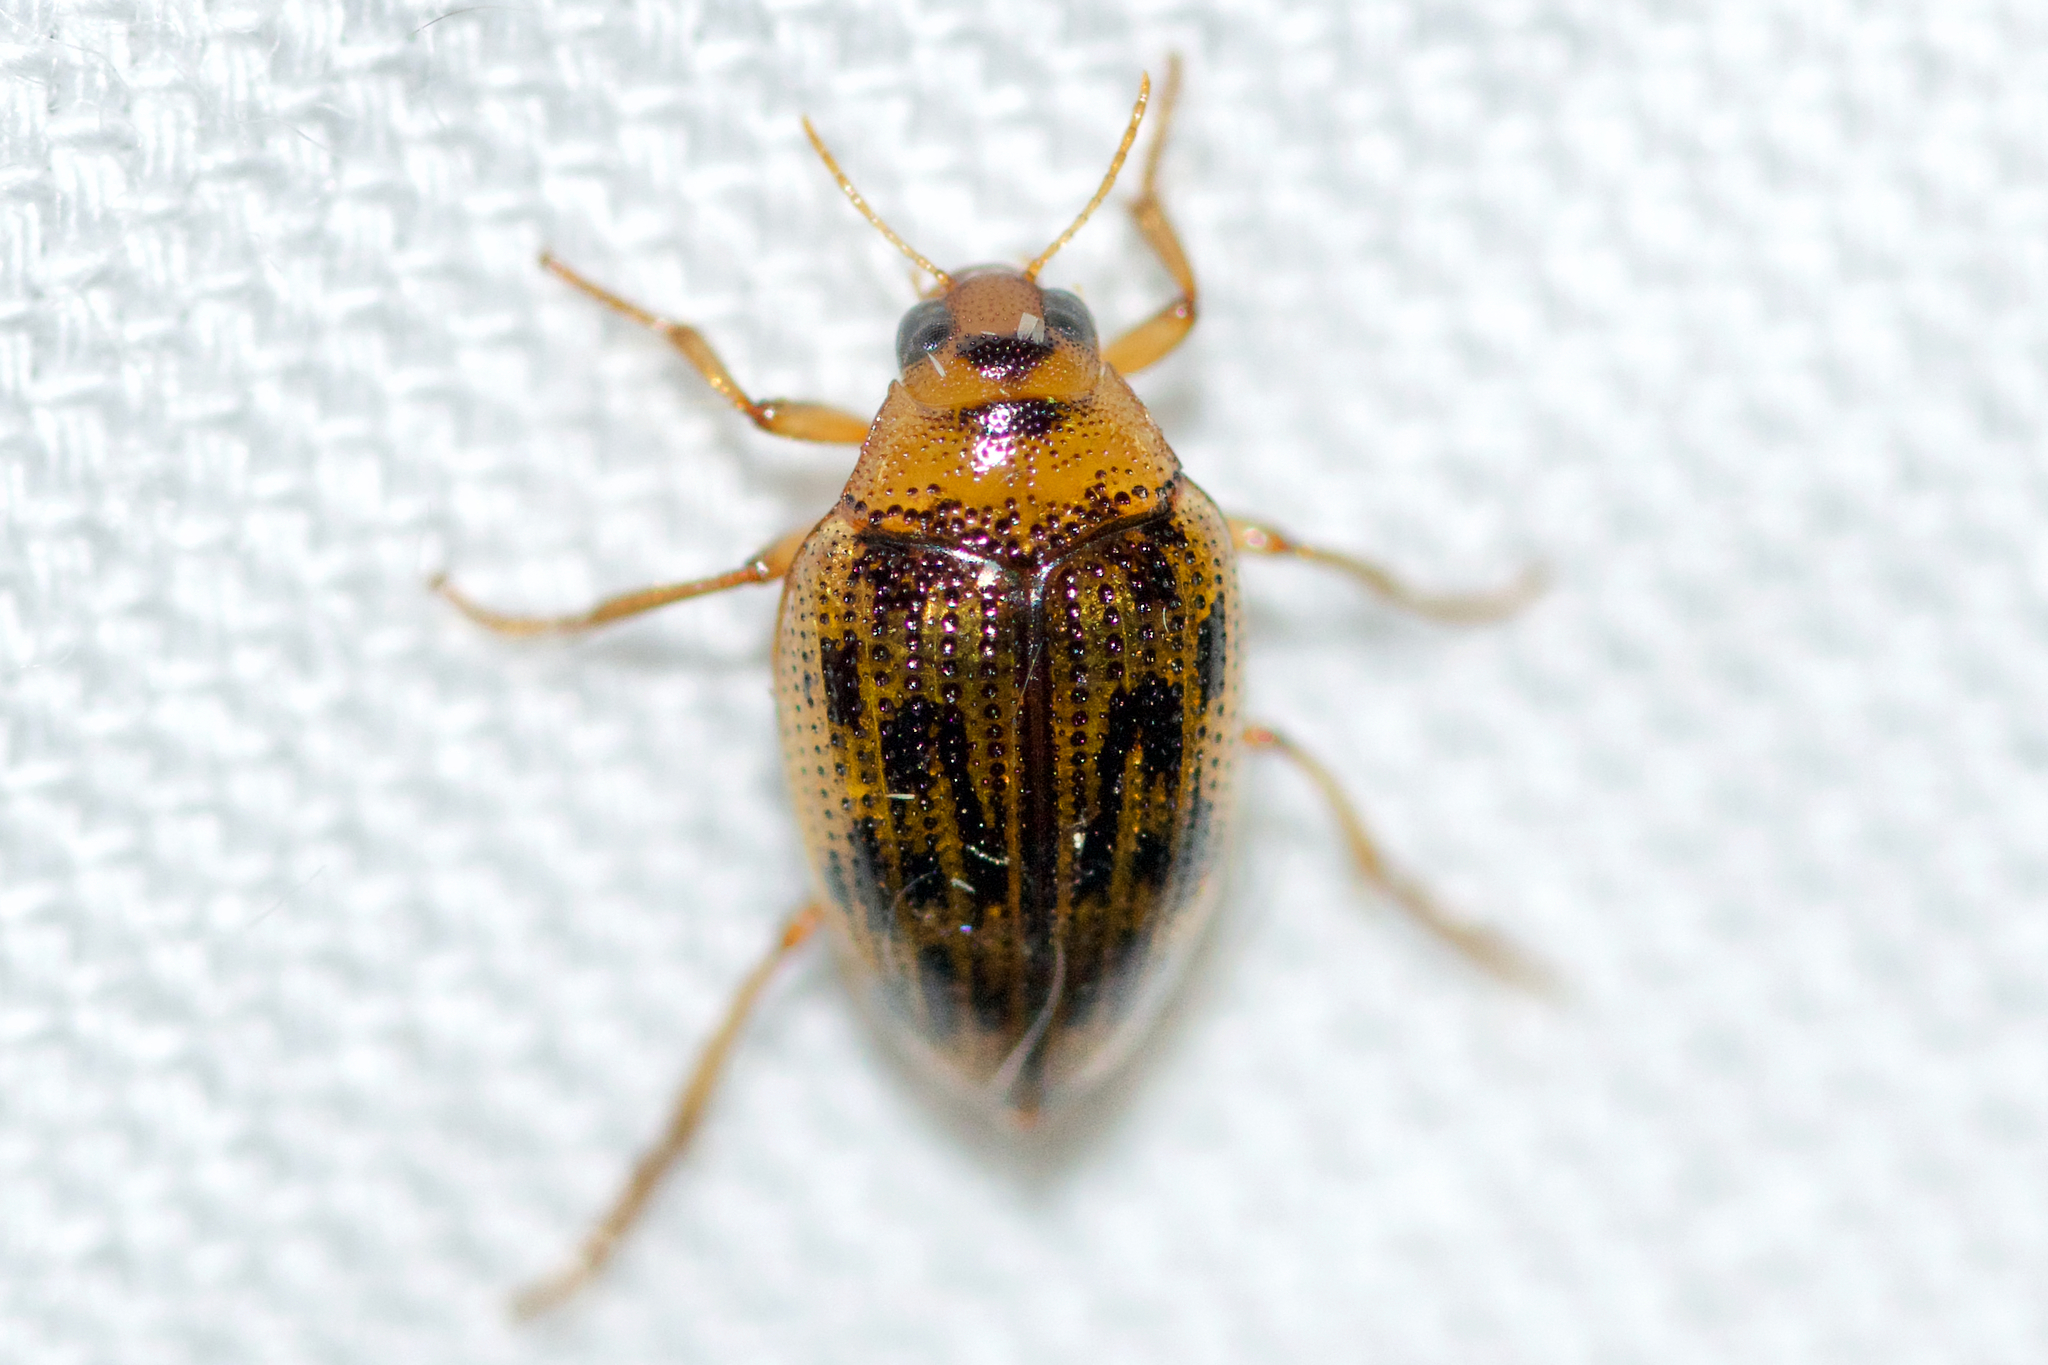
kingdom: Animalia
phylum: Arthropoda
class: Insecta
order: Coleoptera
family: Haliplidae
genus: Haliplus
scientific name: Haliplus cribrarius
